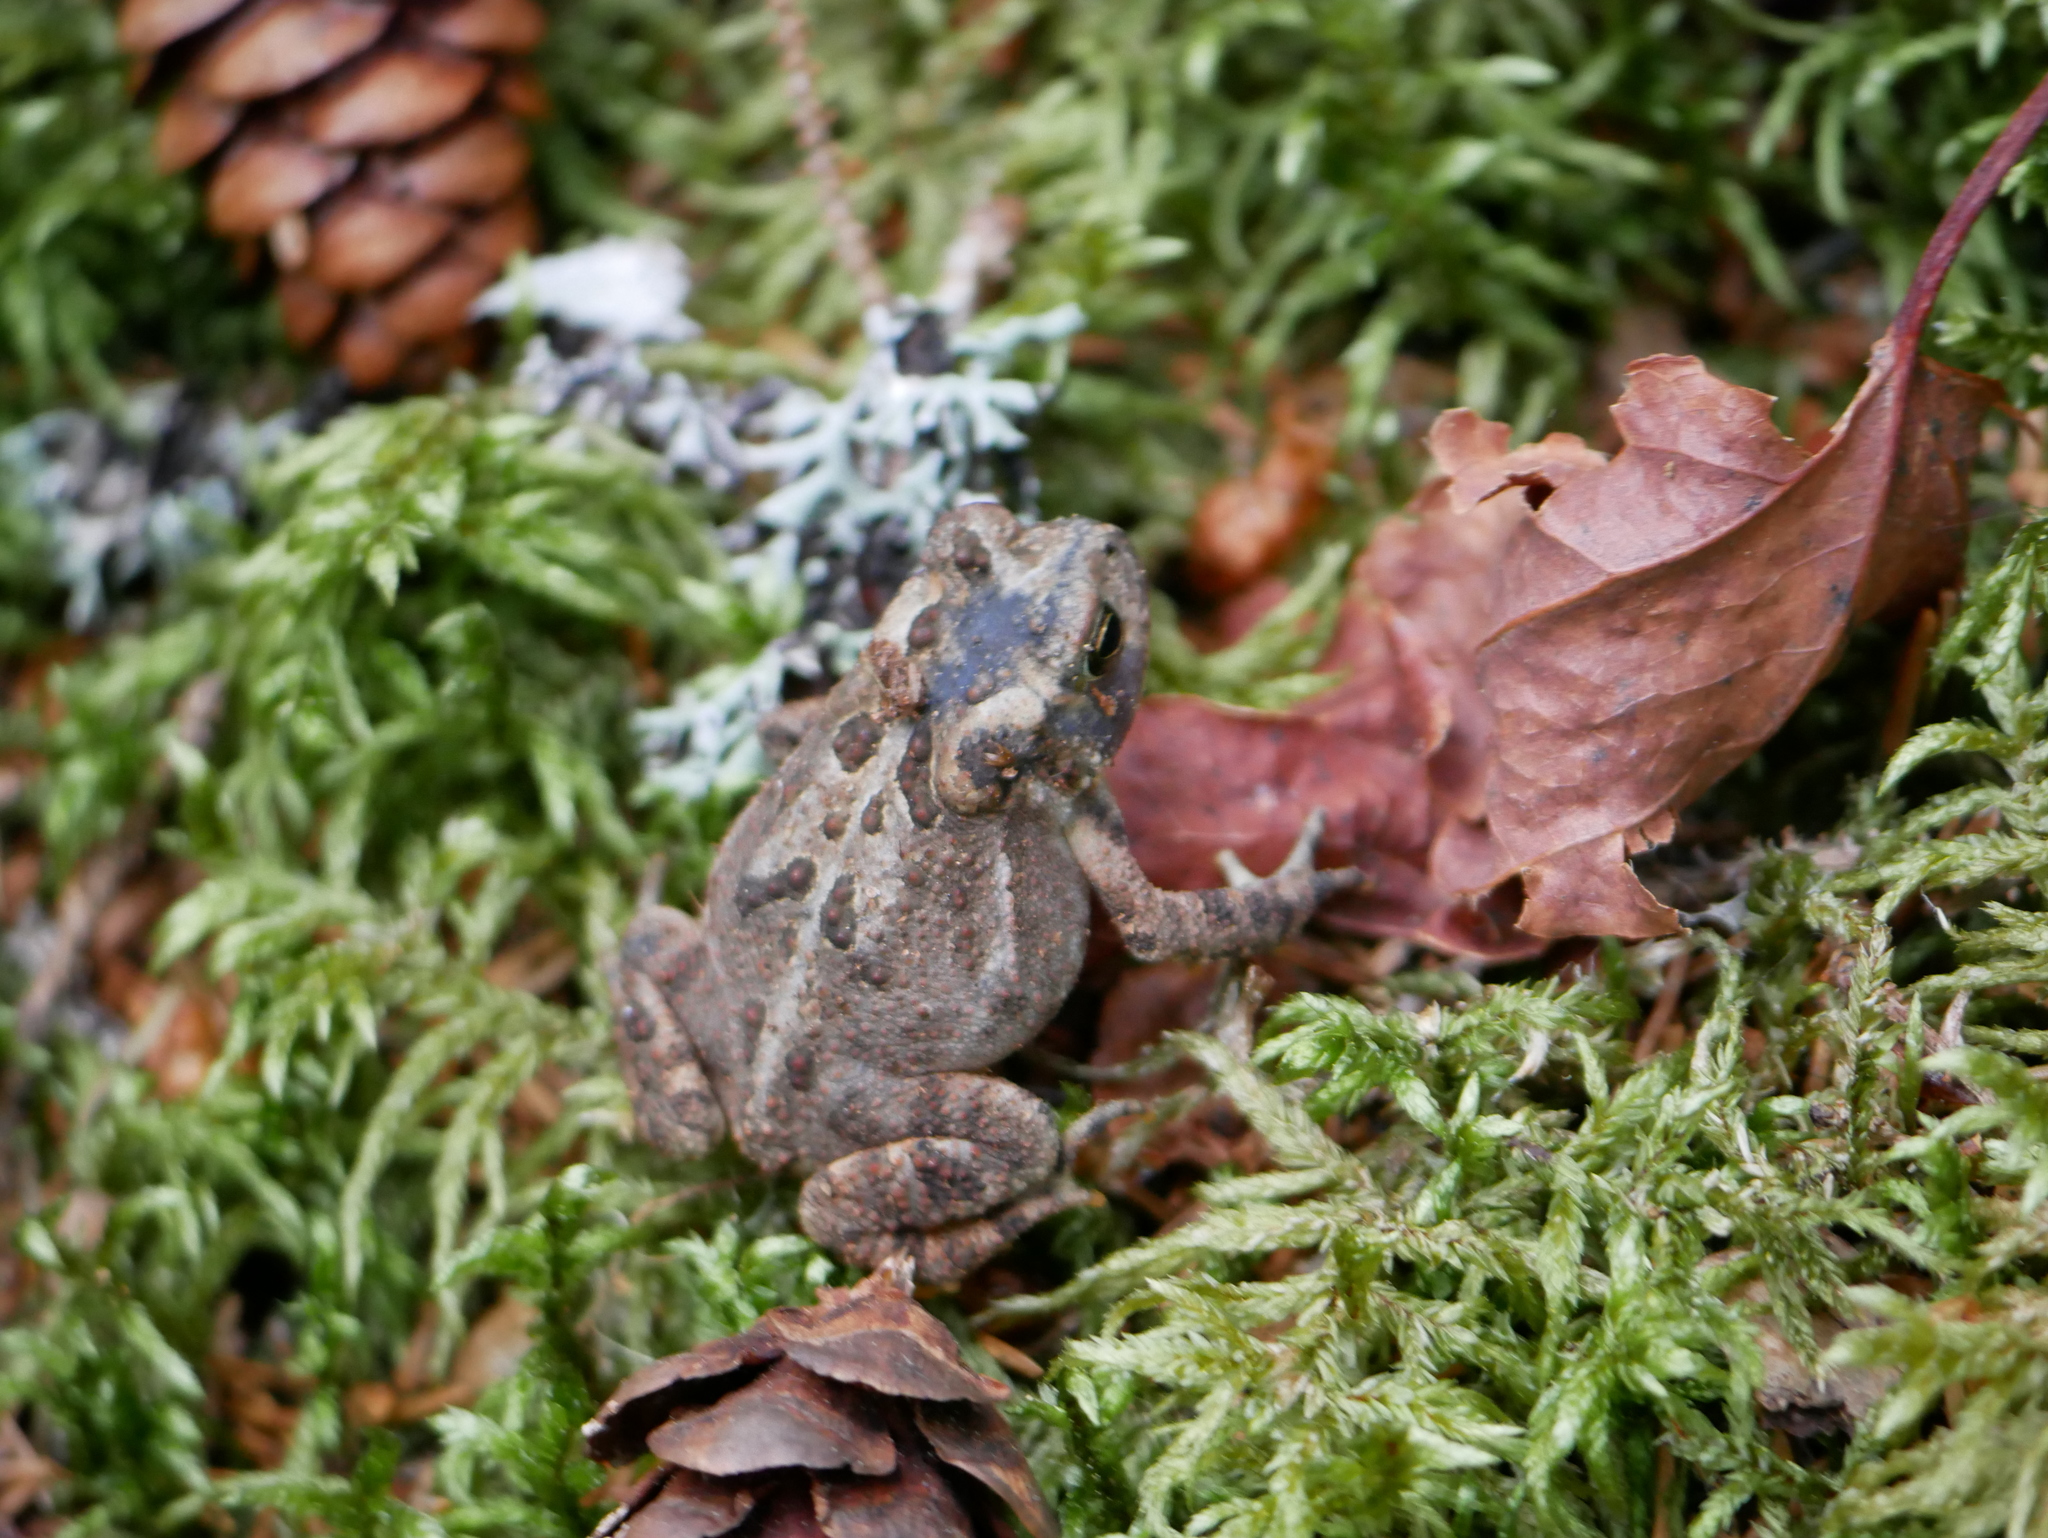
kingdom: Animalia
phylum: Chordata
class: Amphibia
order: Anura
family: Bufonidae
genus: Anaxyrus
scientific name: Anaxyrus americanus
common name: American toad
